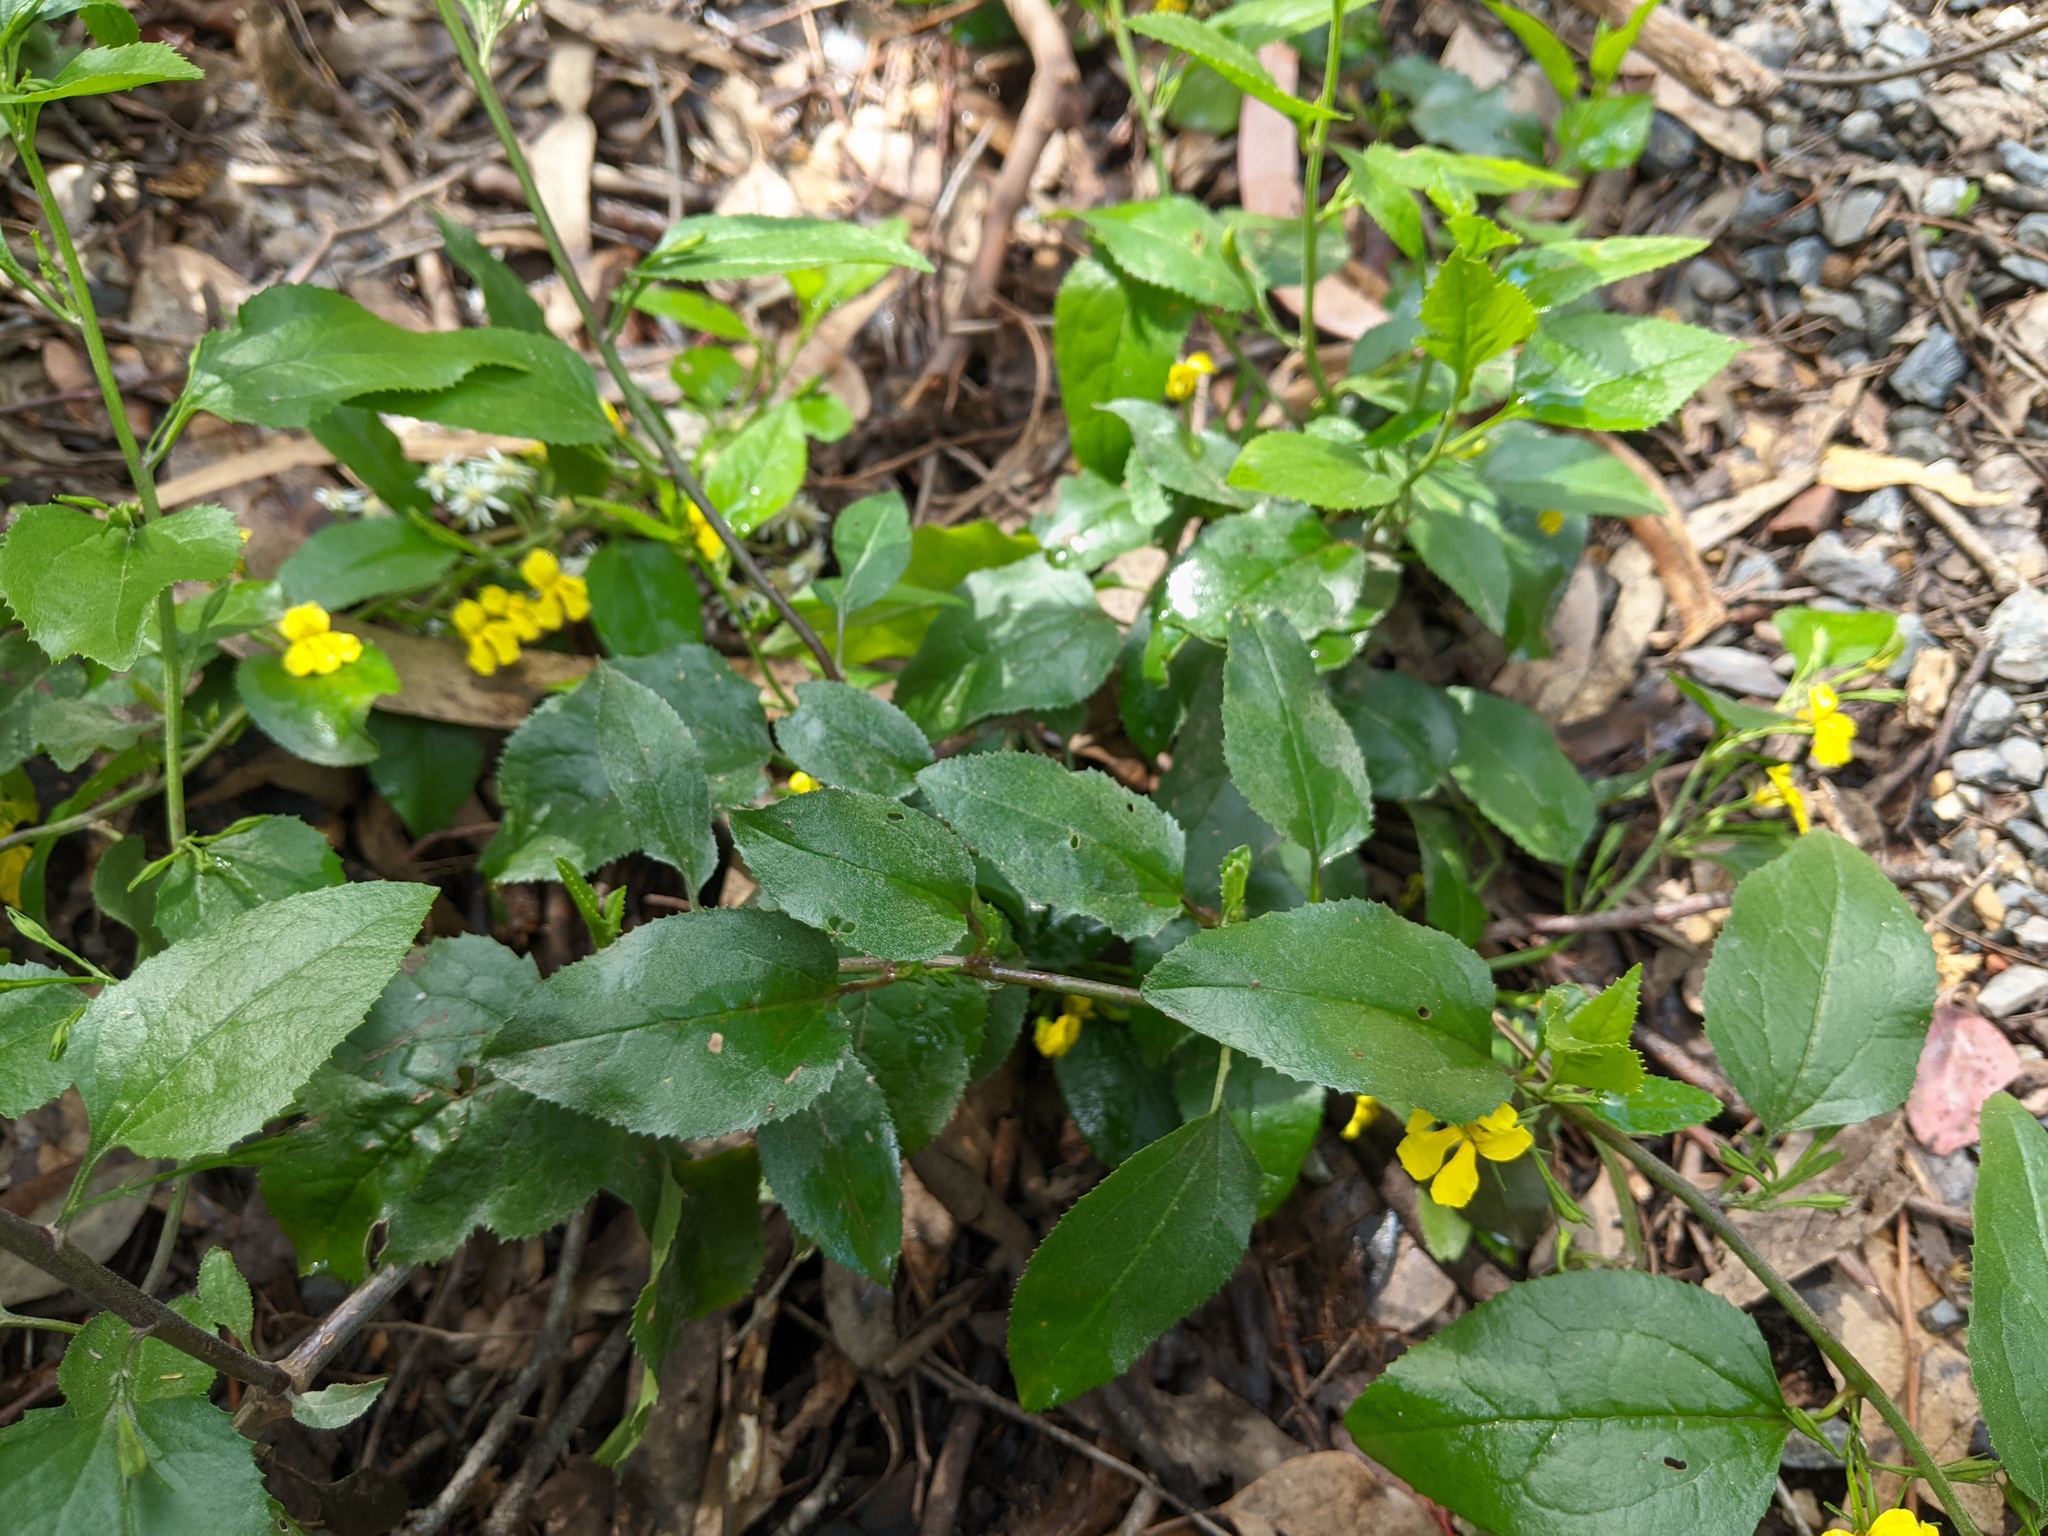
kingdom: Plantae
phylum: Tracheophyta
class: Magnoliopsida
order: Asterales
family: Goodeniaceae
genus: Goodenia
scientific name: Goodenia ovata
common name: Hop goodenia
